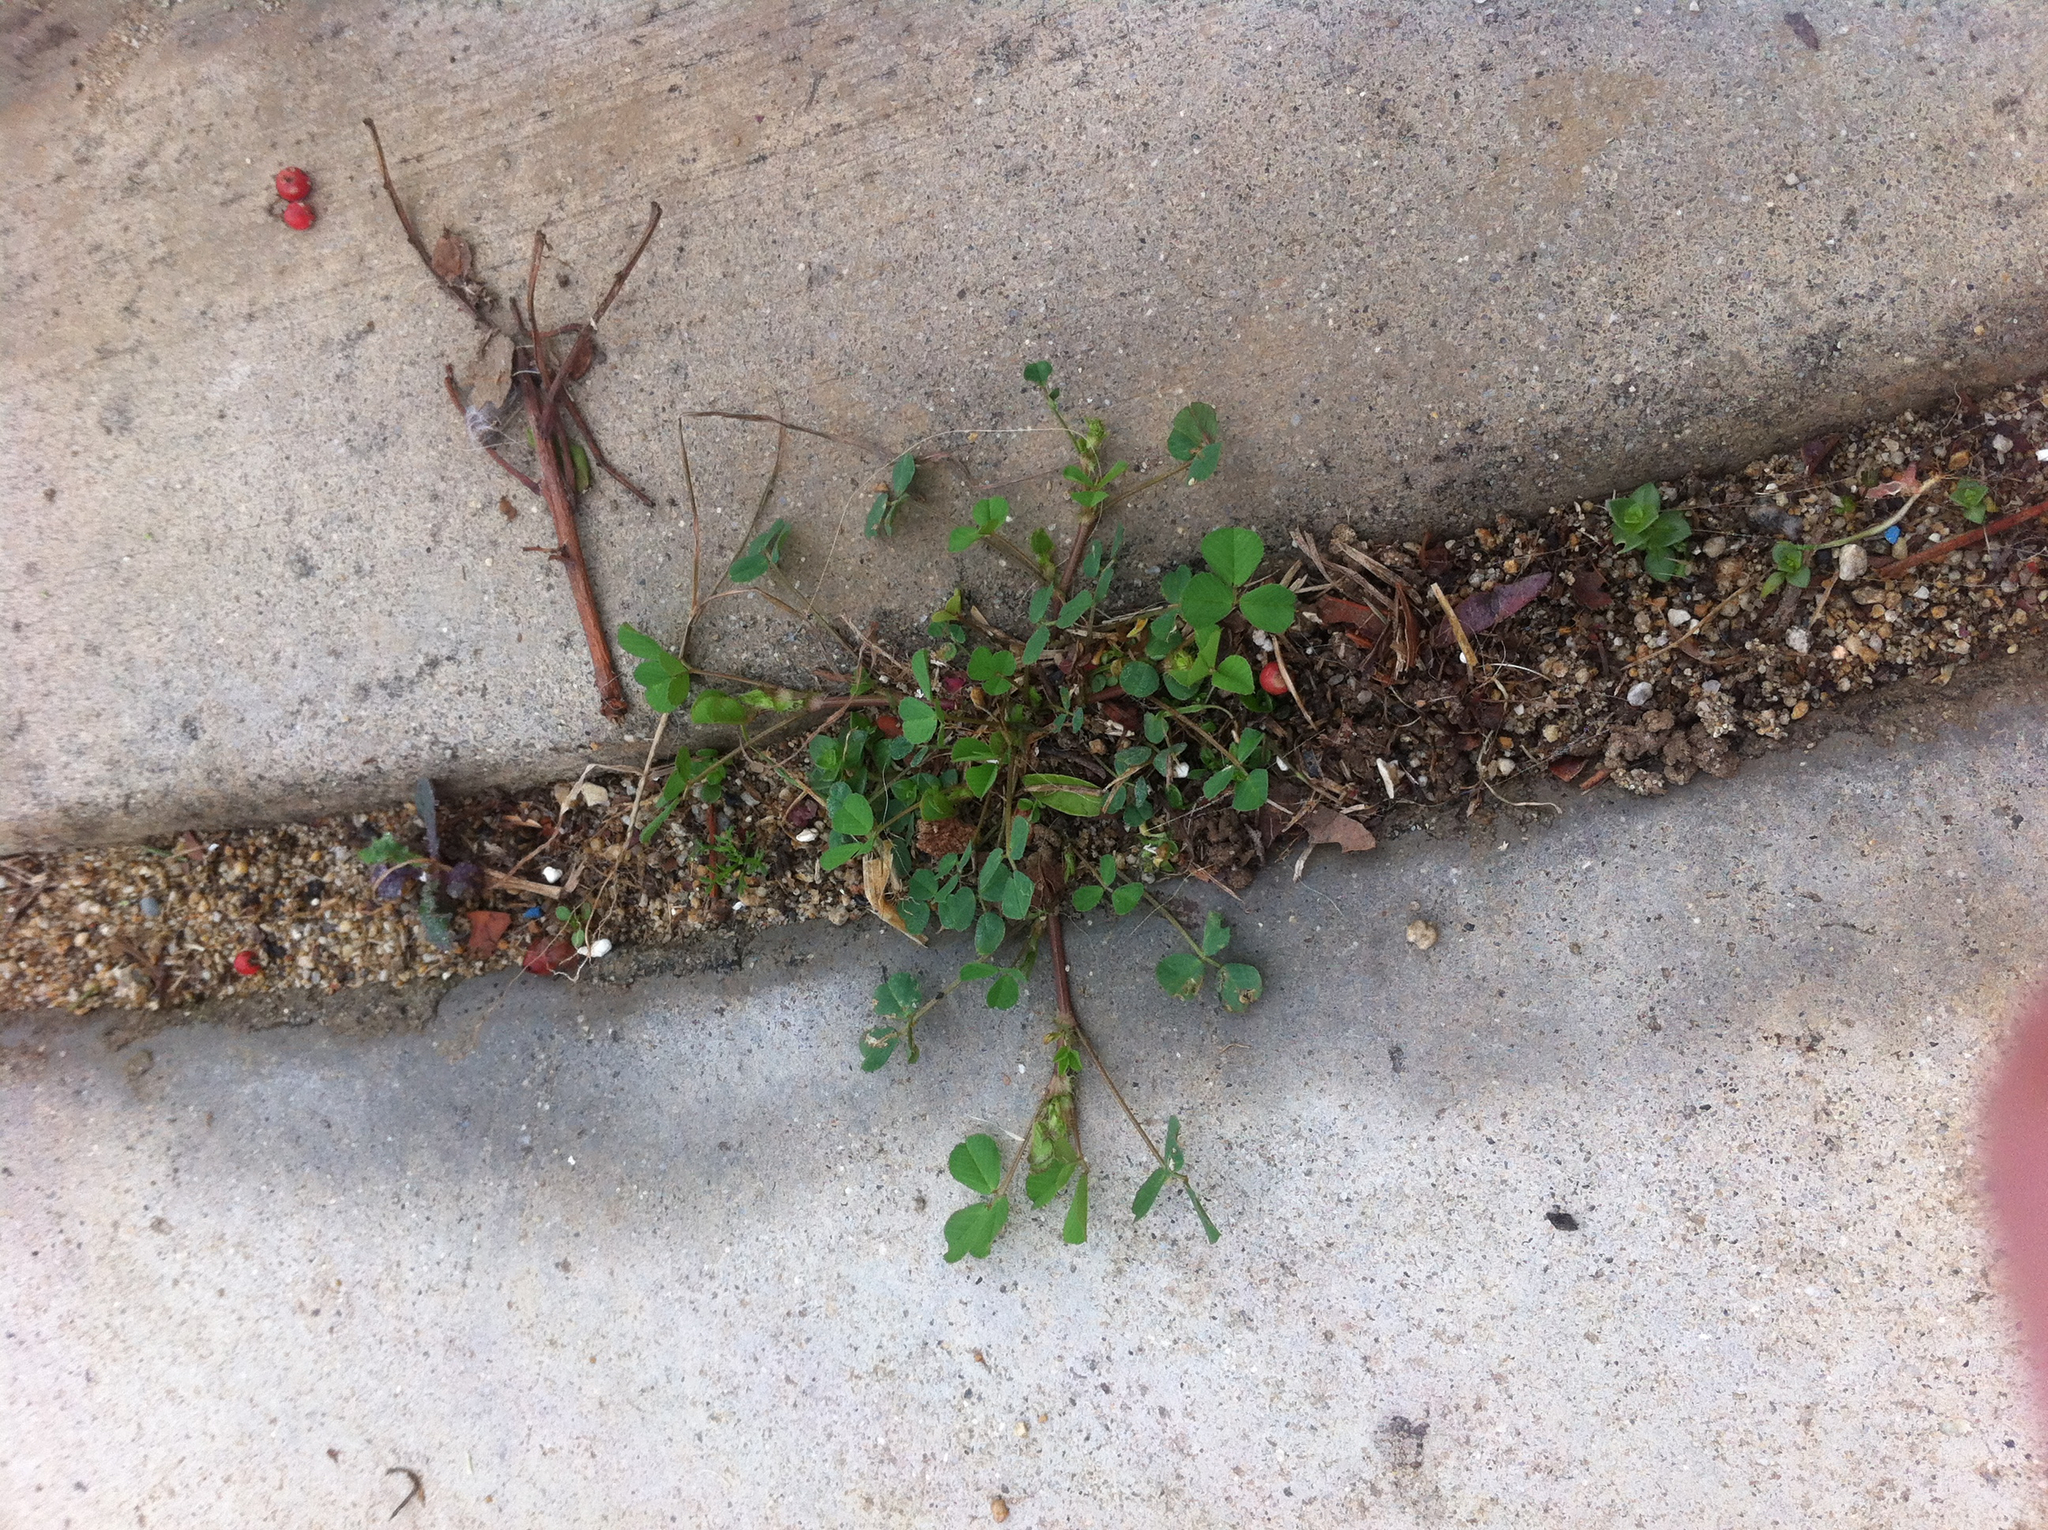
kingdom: Plantae
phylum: Tracheophyta
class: Magnoliopsida
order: Fabales
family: Fabaceae
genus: Medicago
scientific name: Medicago polymorpha
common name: Burclover
